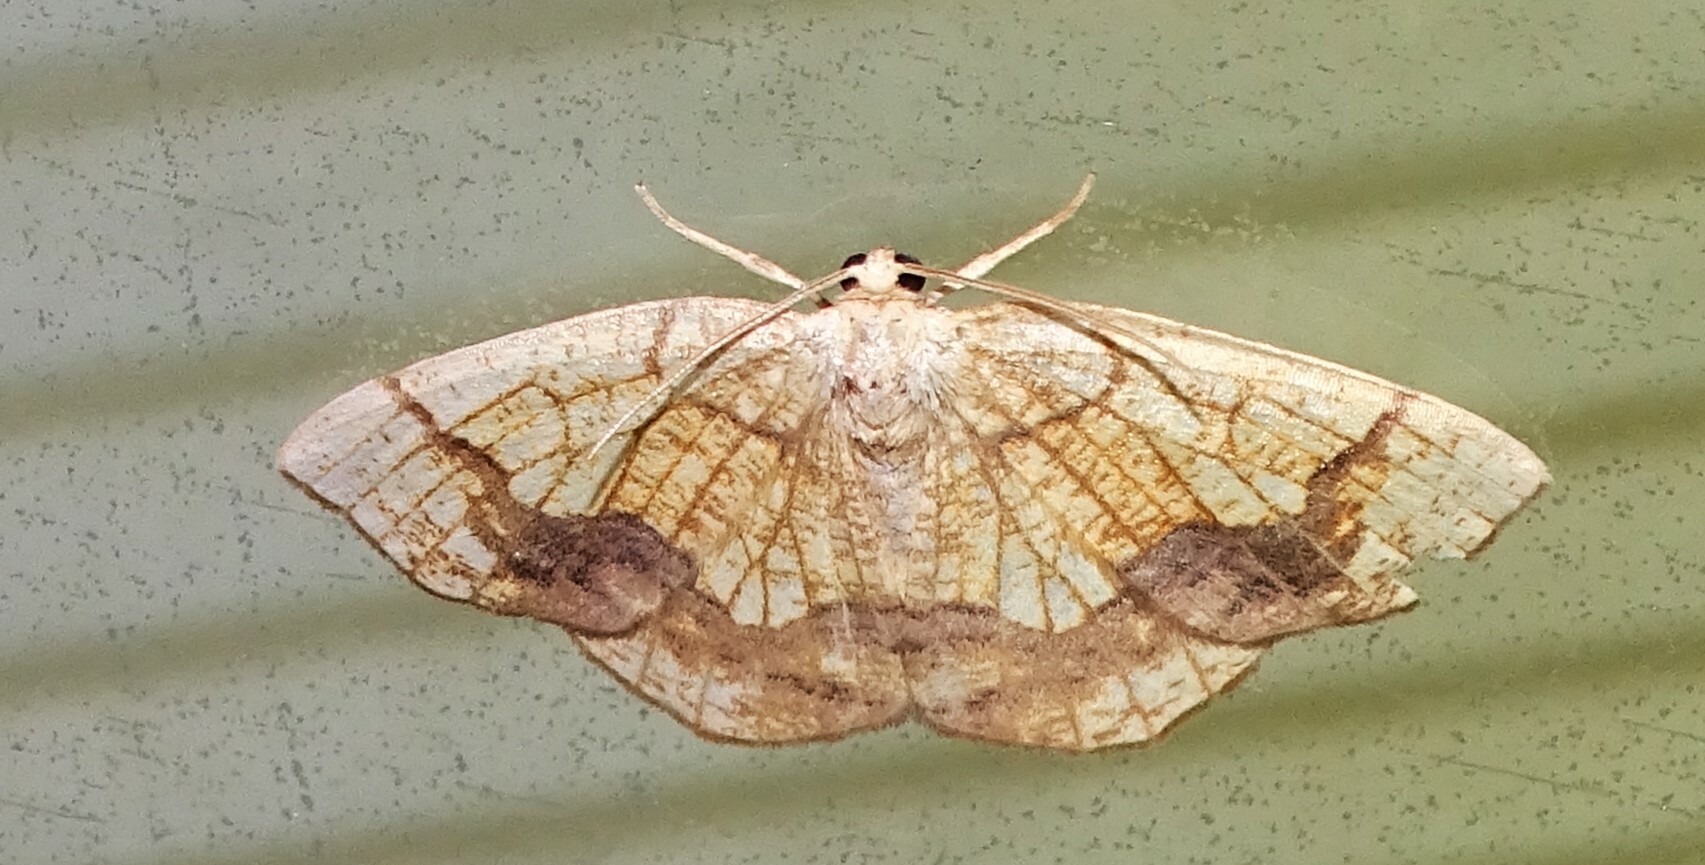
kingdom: Animalia
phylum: Arthropoda
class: Insecta
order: Lepidoptera
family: Geometridae
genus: Nematocampa
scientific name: Nematocampa resistaria
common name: Horned spanworm moth
